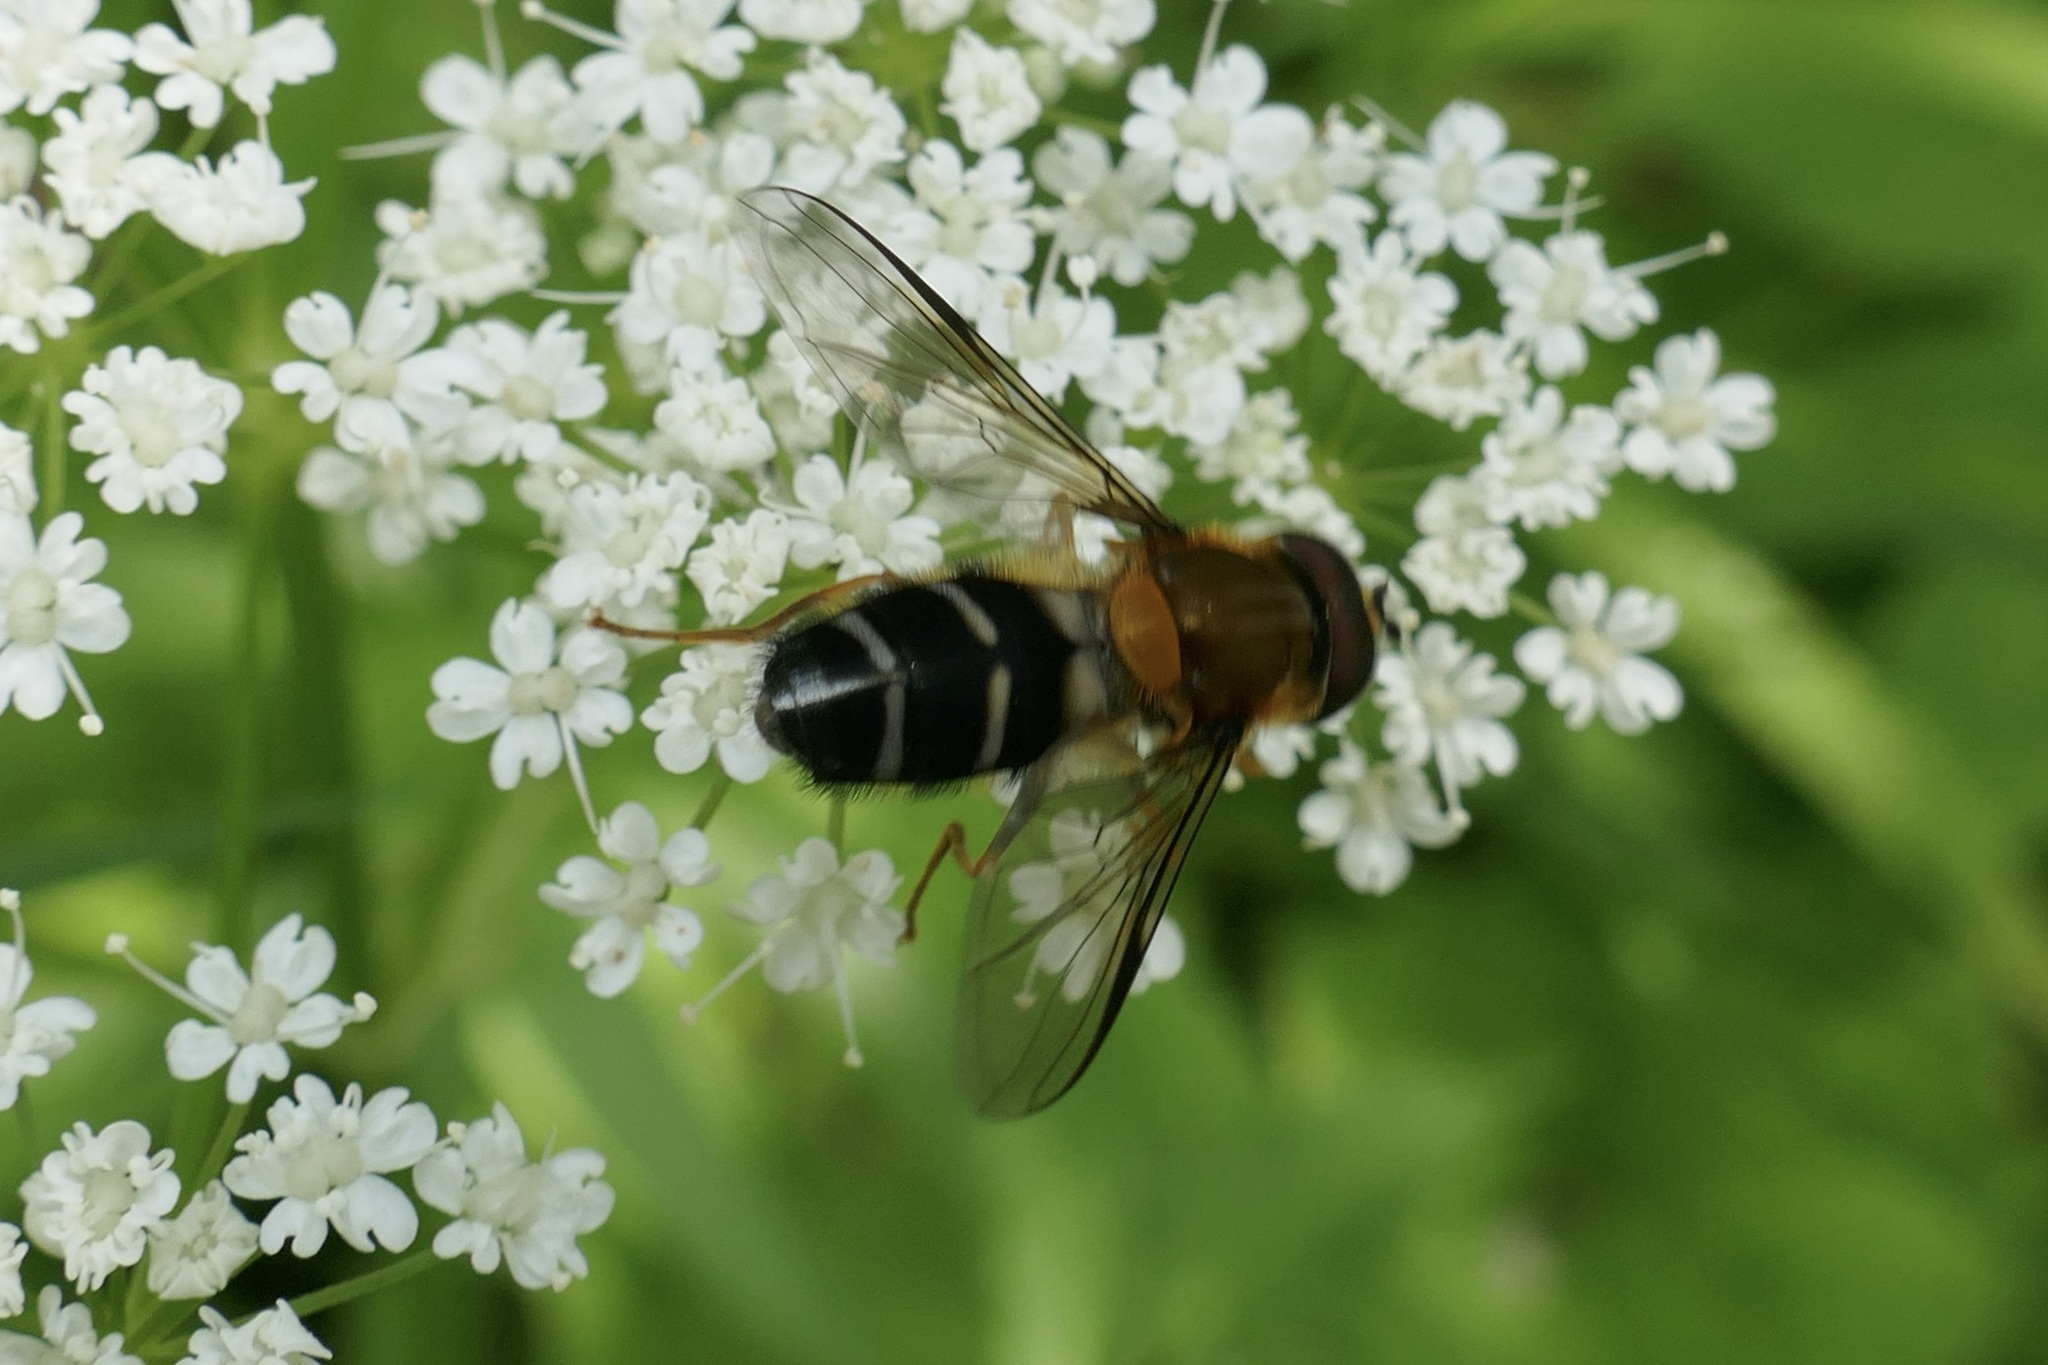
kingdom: Animalia
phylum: Arthropoda
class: Insecta
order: Diptera
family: Syrphidae
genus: Leucozona
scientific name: Leucozona glaucia
